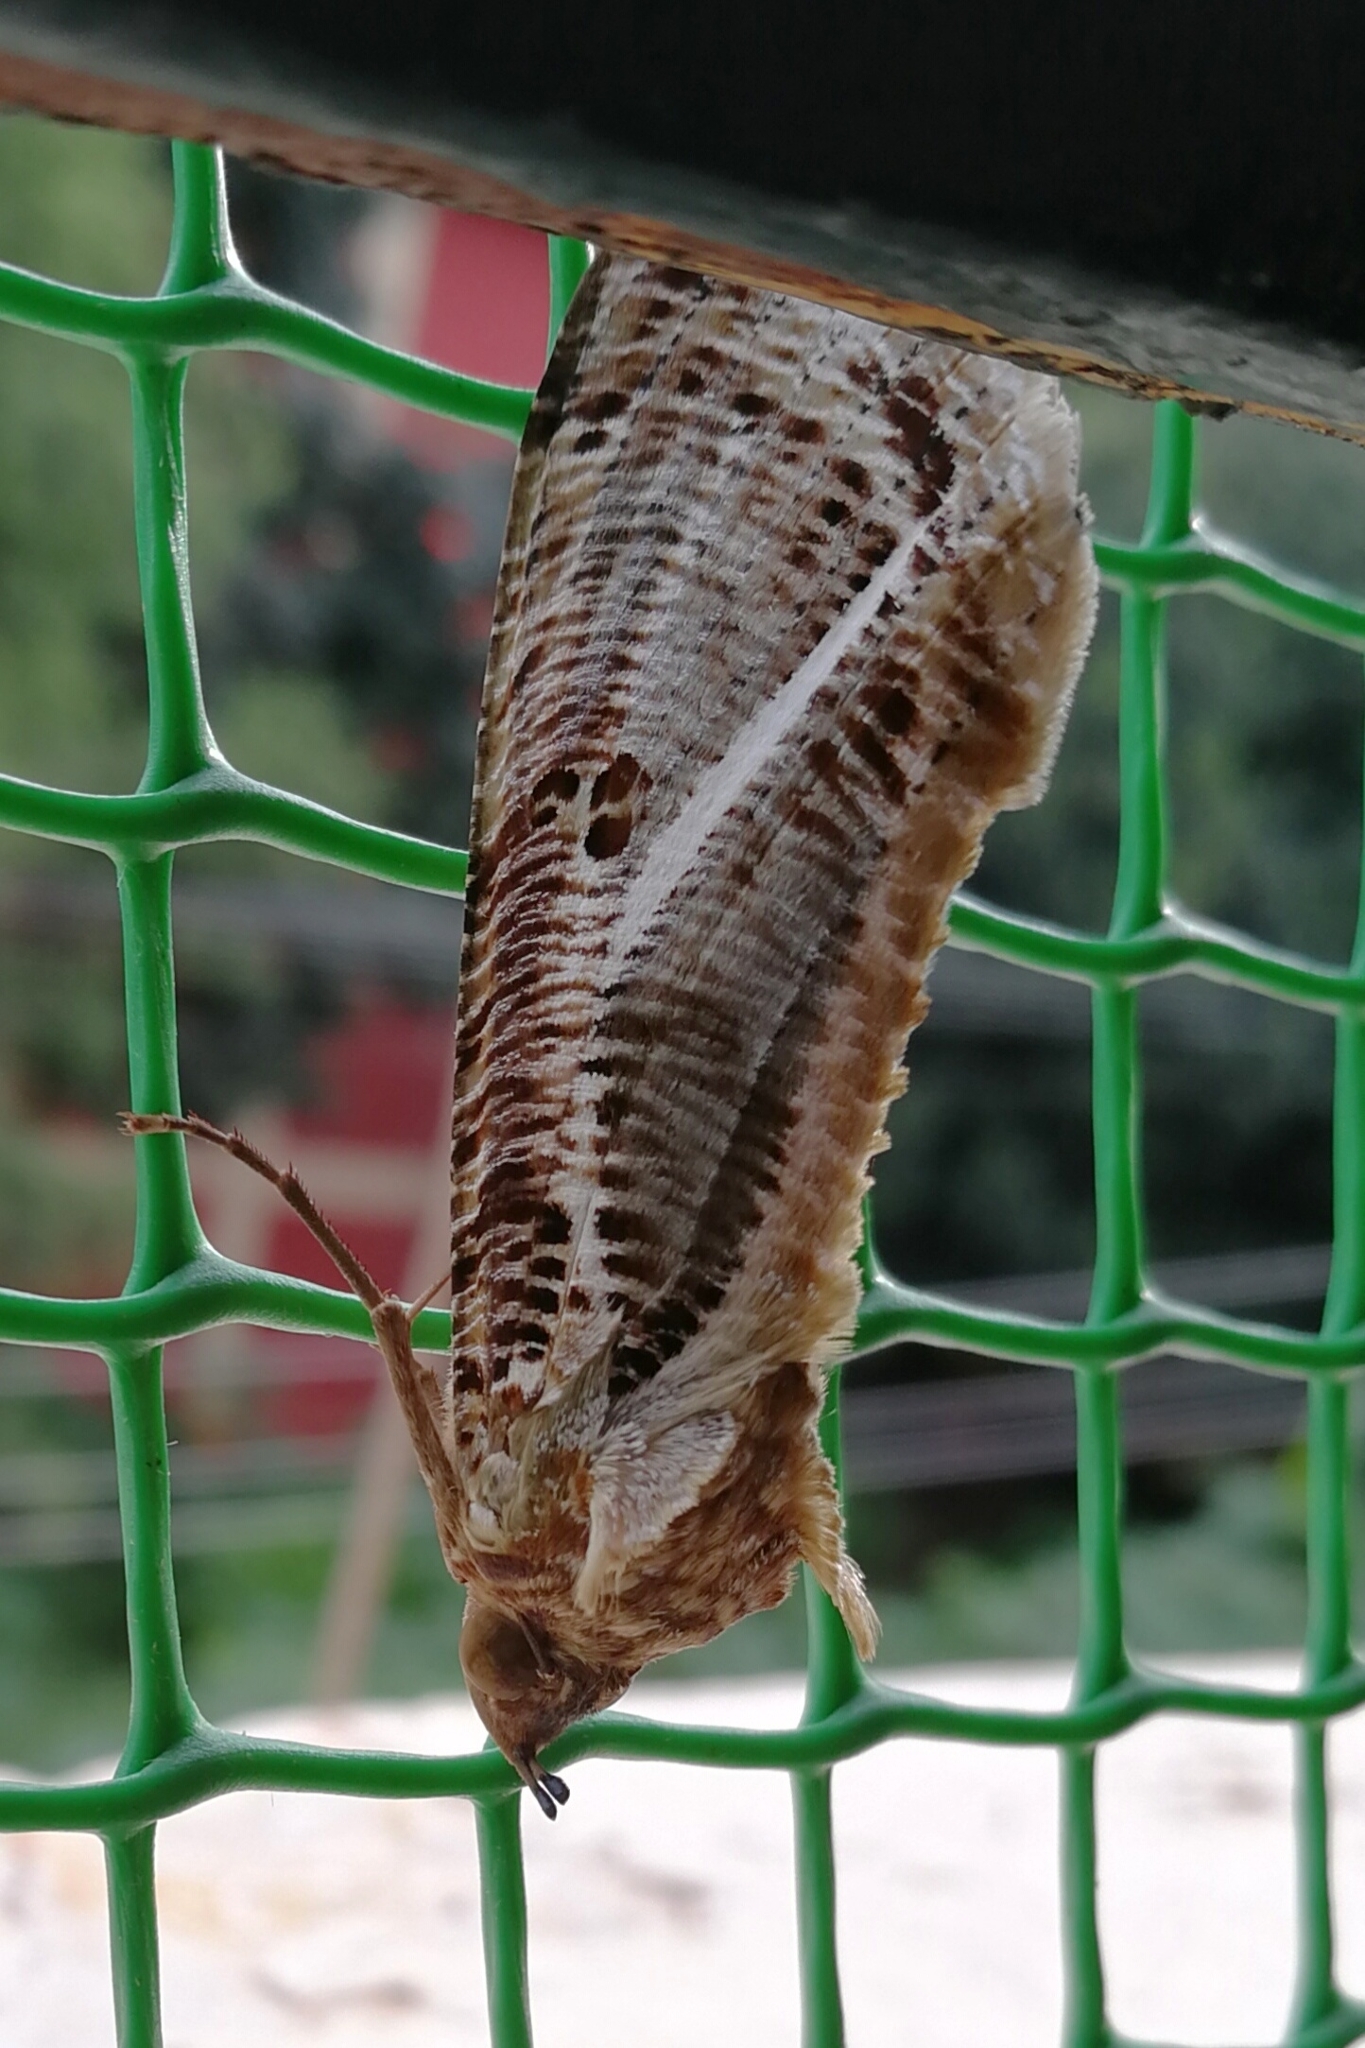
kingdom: Animalia
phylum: Arthropoda
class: Insecta
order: Lepidoptera
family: Erebidae
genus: Eudocima
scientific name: Eudocima materna
